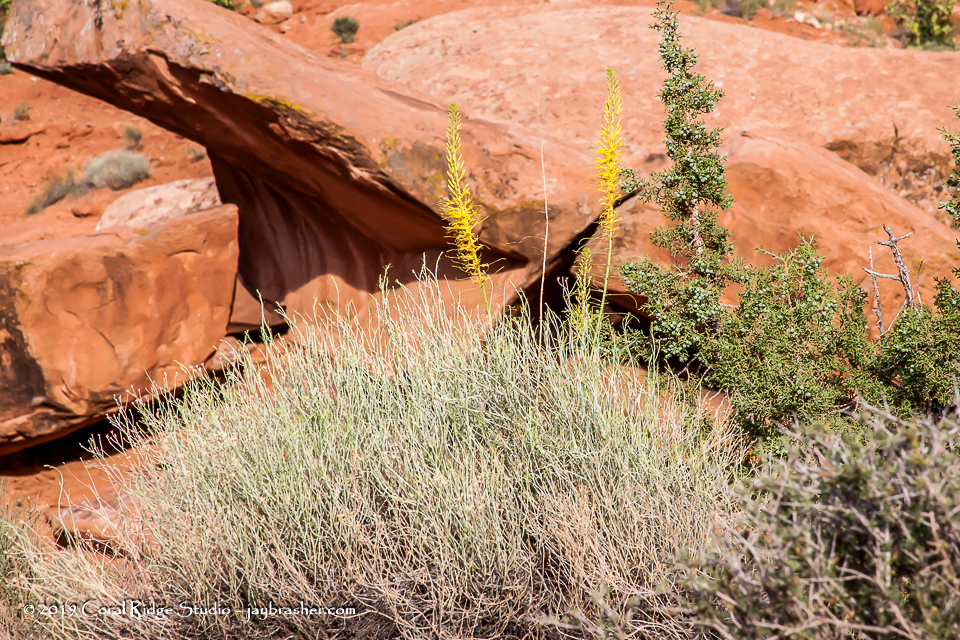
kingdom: Plantae
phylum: Tracheophyta
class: Magnoliopsida
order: Brassicales
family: Brassicaceae
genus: Stanleya
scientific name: Stanleya pinnata
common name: Prince's-plume
